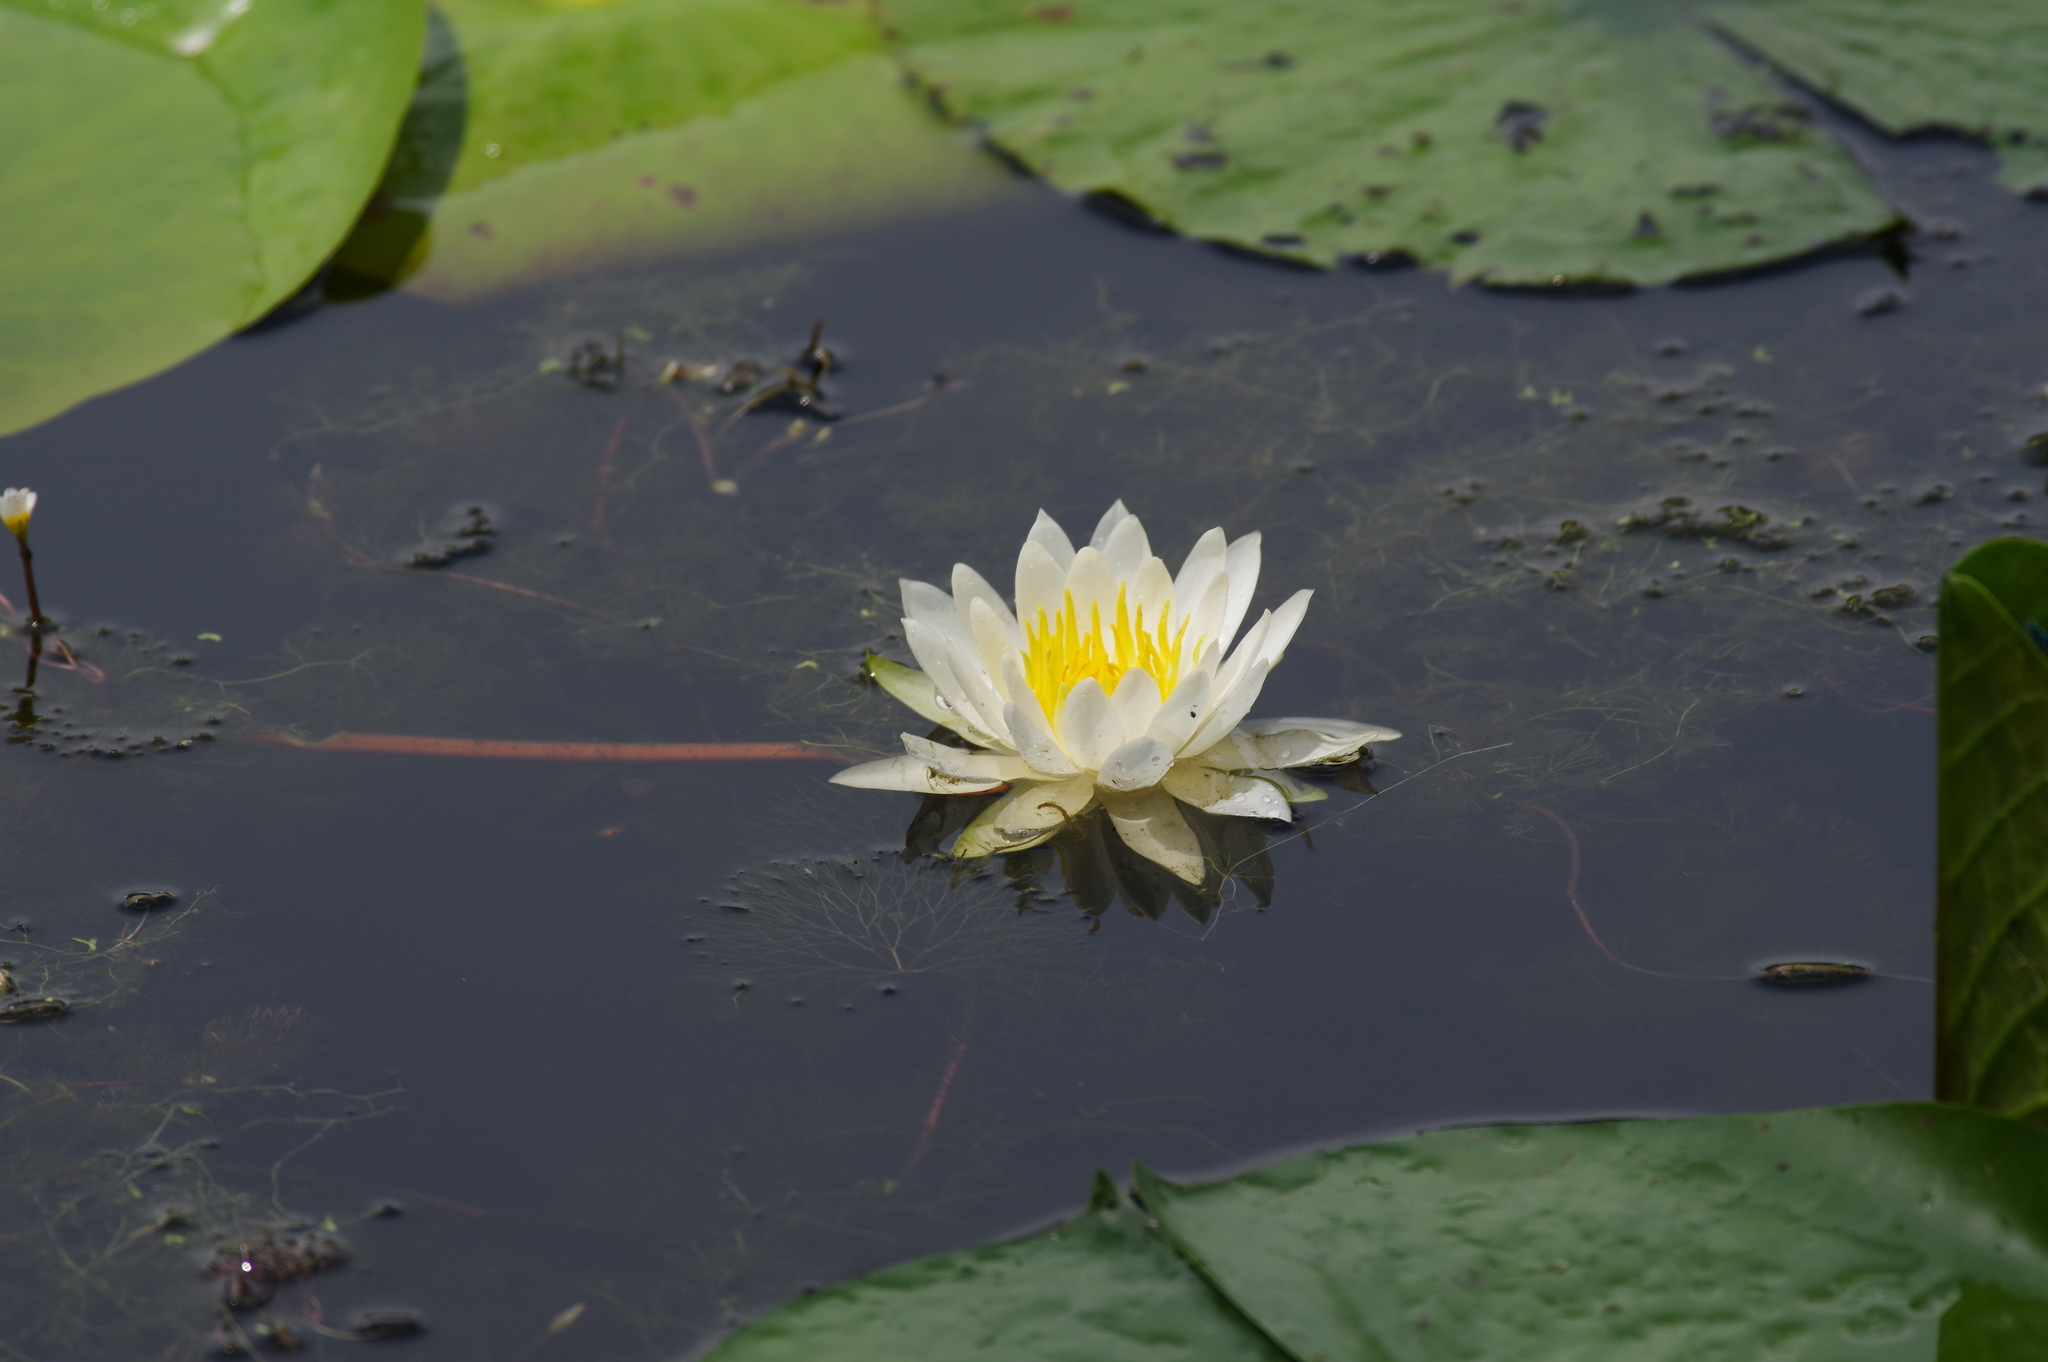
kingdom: Plantae
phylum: Tracheophyta
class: Magnoliopsida
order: Nymphaeales
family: Nymphaeaceae
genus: Nymphaea
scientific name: Nymphaea odorata
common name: Fragrant water-lily
